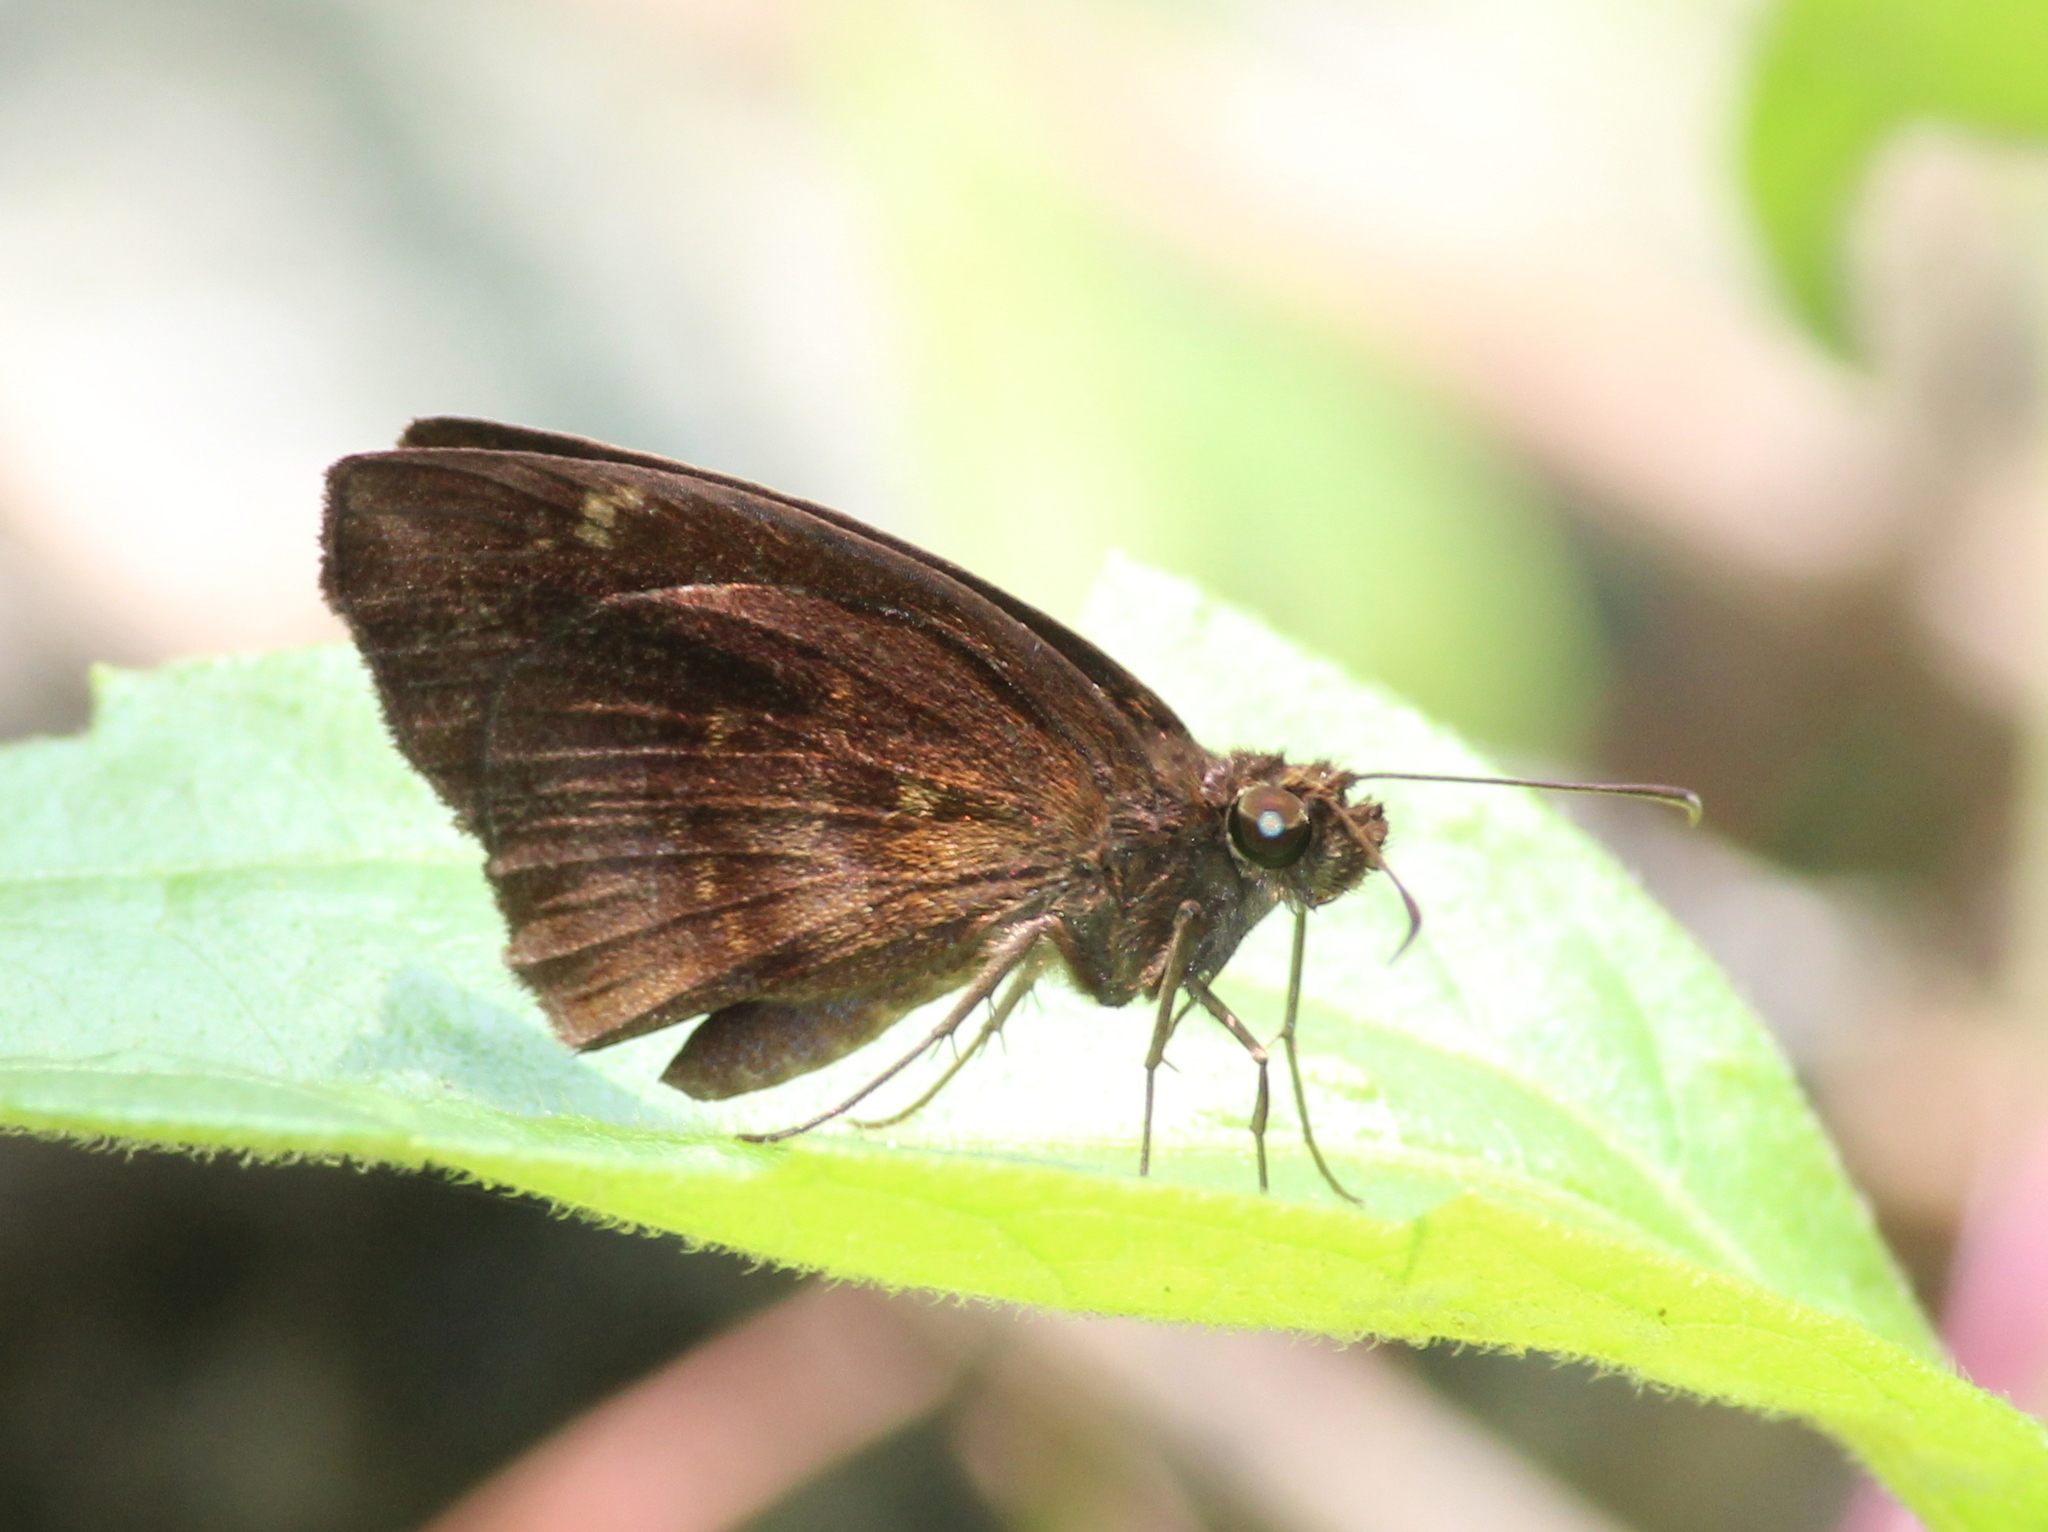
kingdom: Animalia
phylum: Arthropoda
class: Insecta
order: Lepidoptera
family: Hesperiidae
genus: Psolos
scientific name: Psolos fuligo
